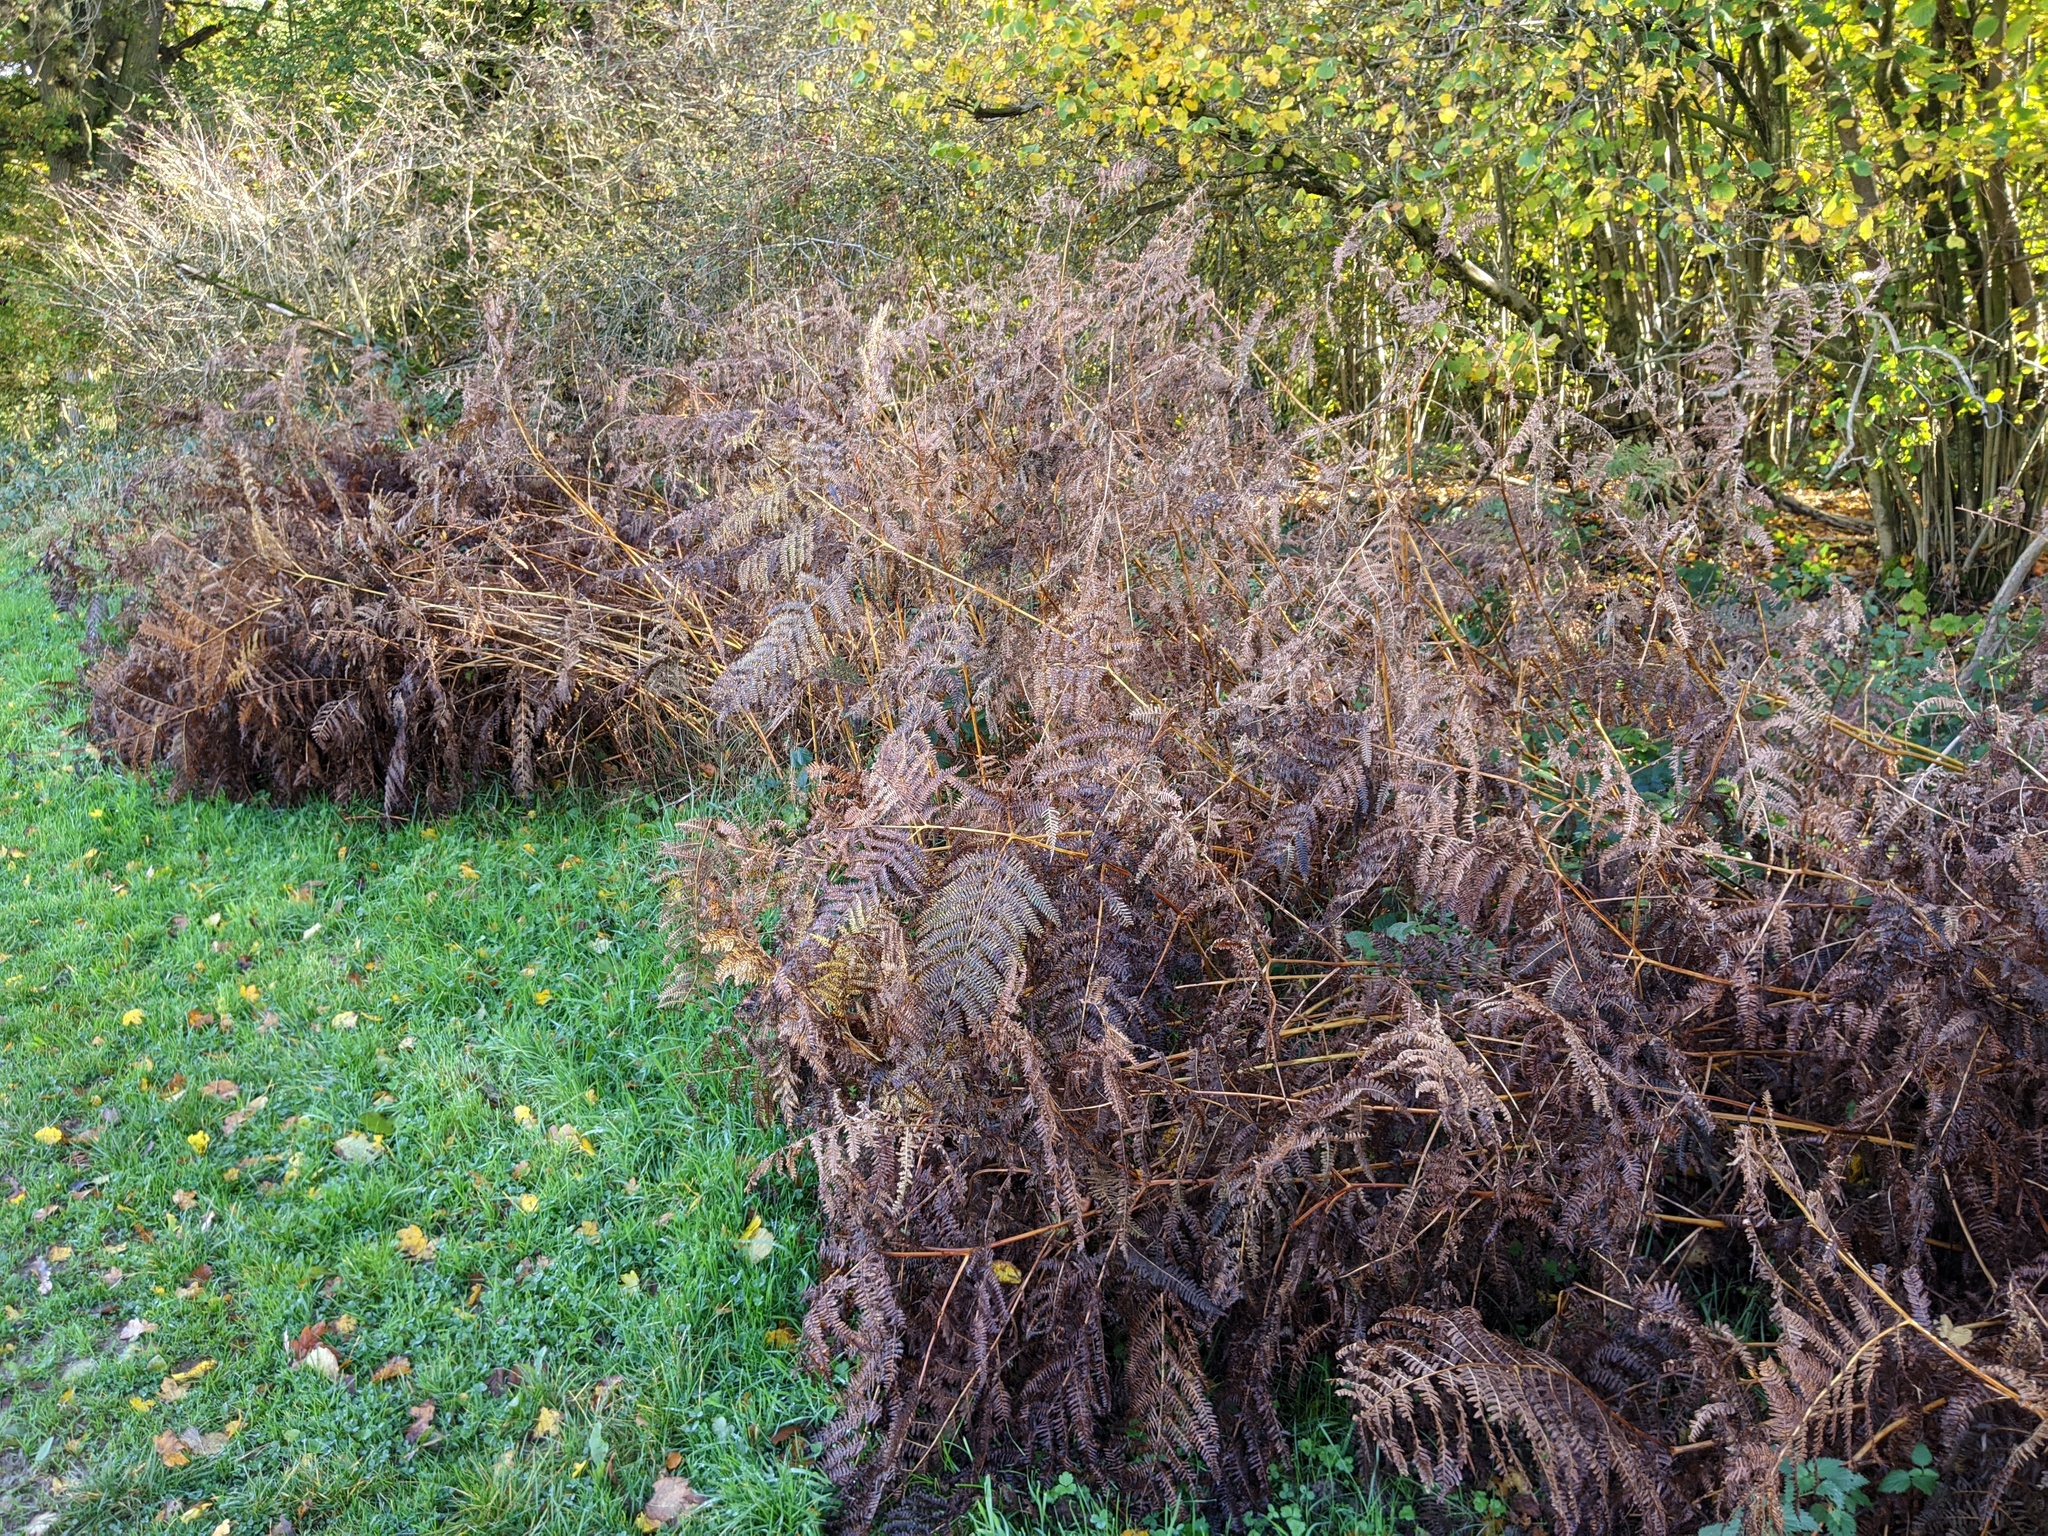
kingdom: Plantae
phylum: Tracheophyta
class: Polypodiopsida
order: Polypodiales
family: Dennstaedtiaceae
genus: Pteridium
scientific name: Pteridium aquilinum
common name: Bracken
